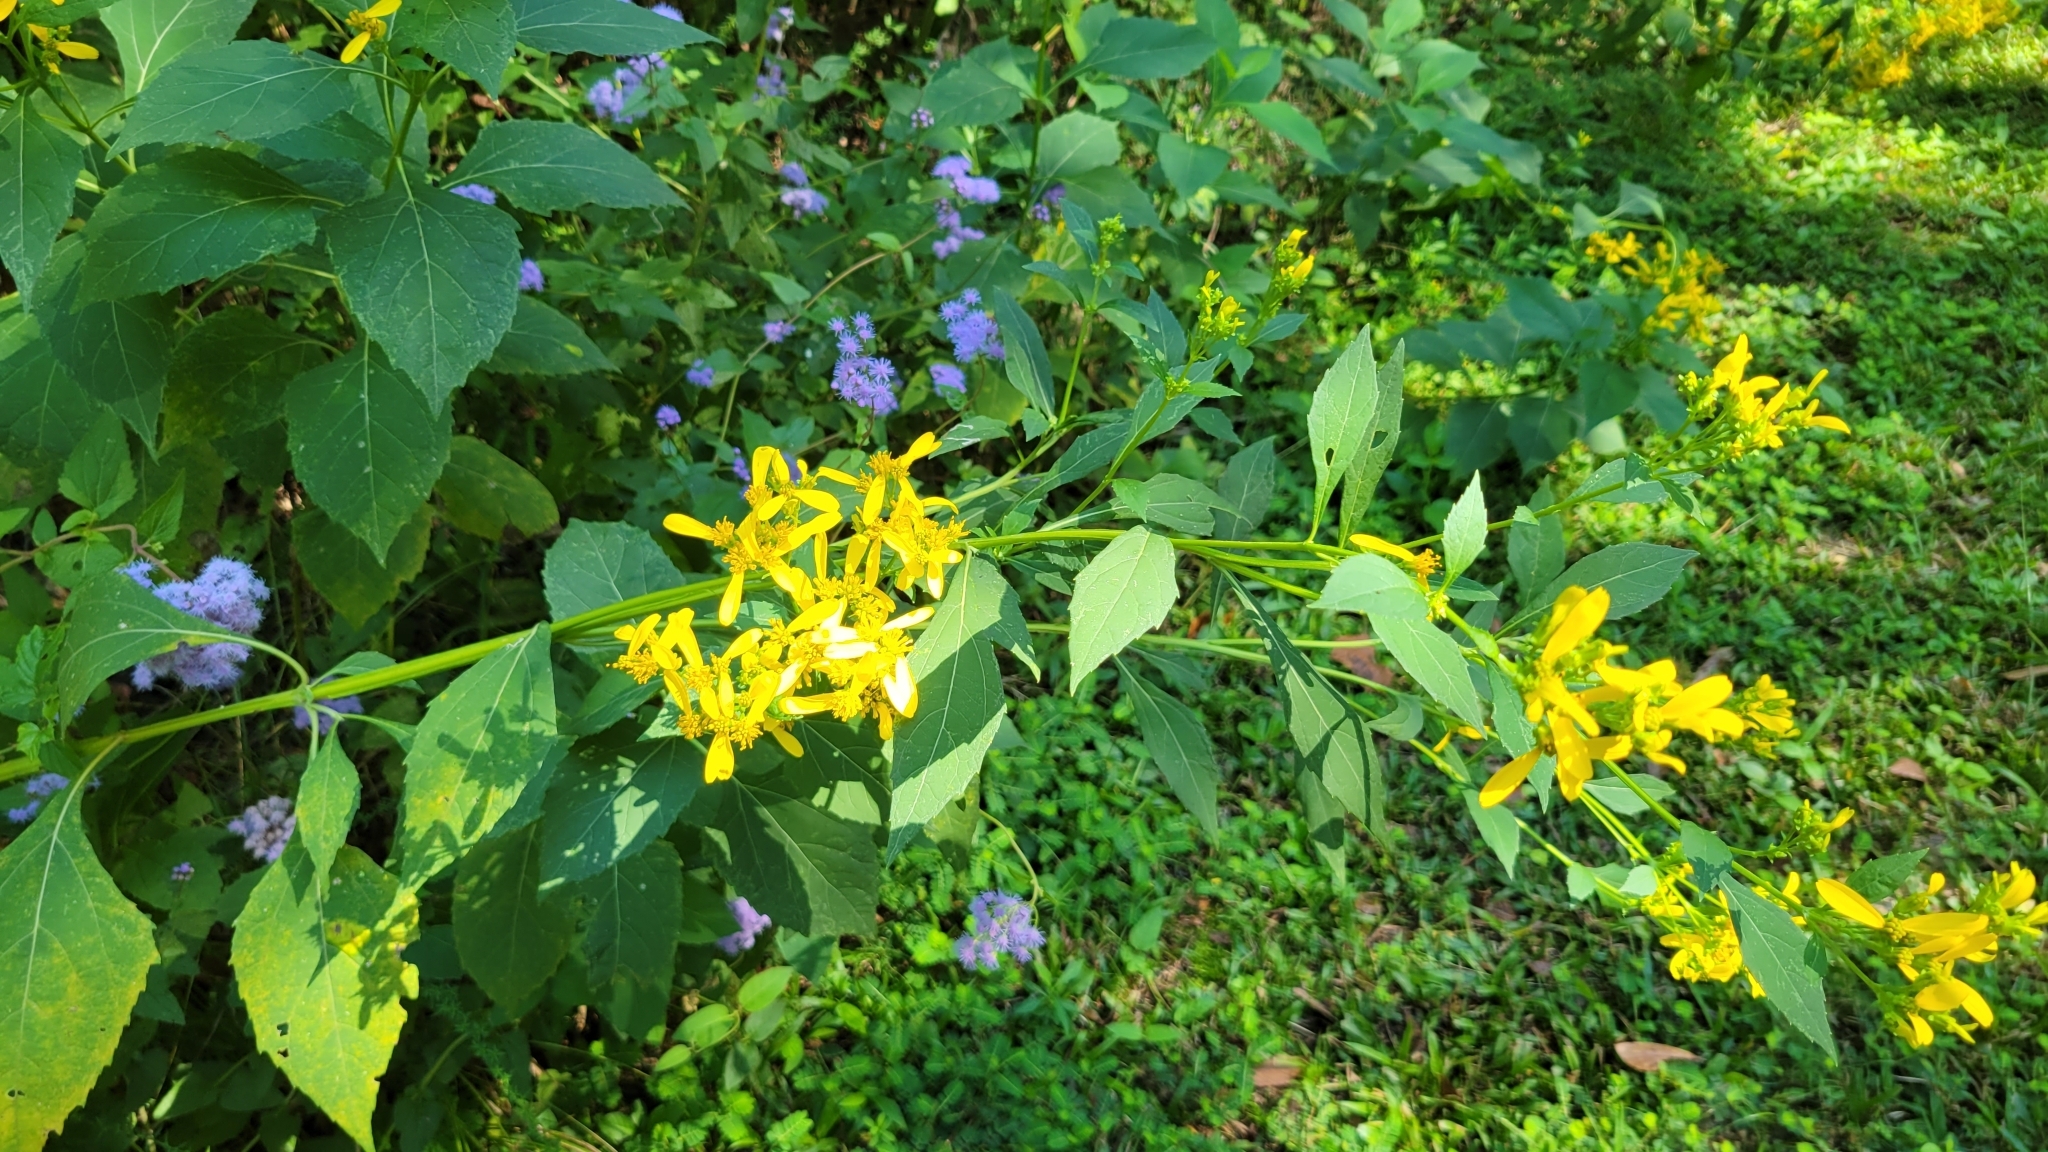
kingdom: Plantae
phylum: Tracheophyta
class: Magnoliopsida
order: Asterales
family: Asteraceae
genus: Verbesina
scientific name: Verbesina occidentalis
